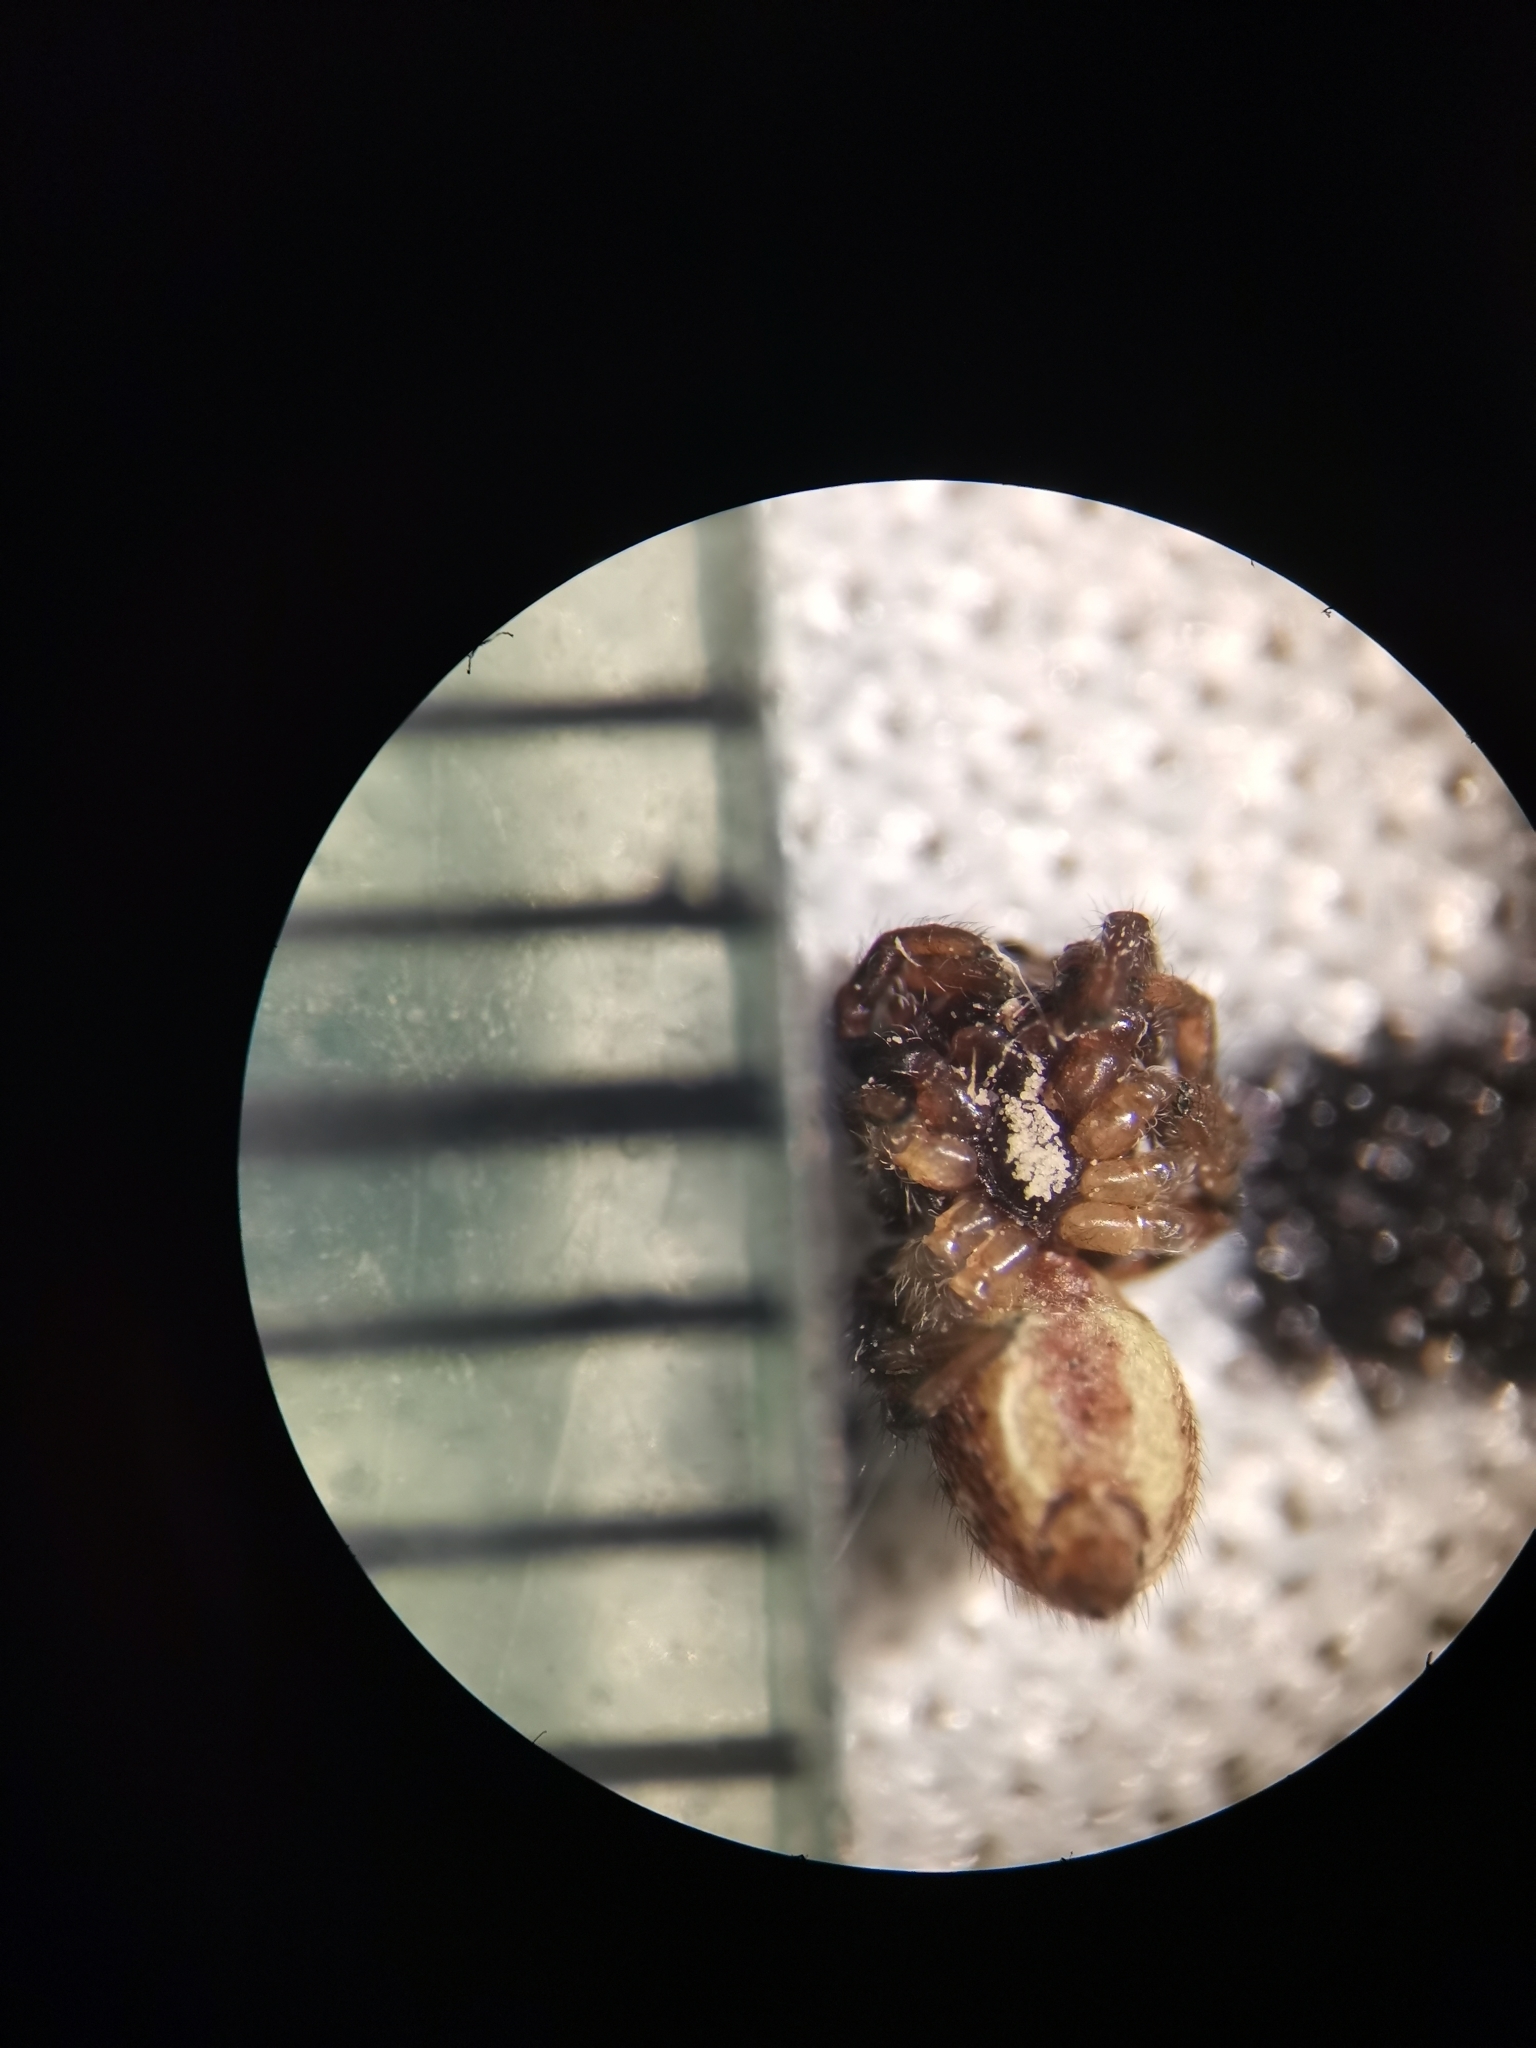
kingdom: Animalia
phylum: Arthropoda
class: Arachnida
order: Araneae
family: Salticidae
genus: Macaroeris
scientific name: Macaroeris nidicolens
